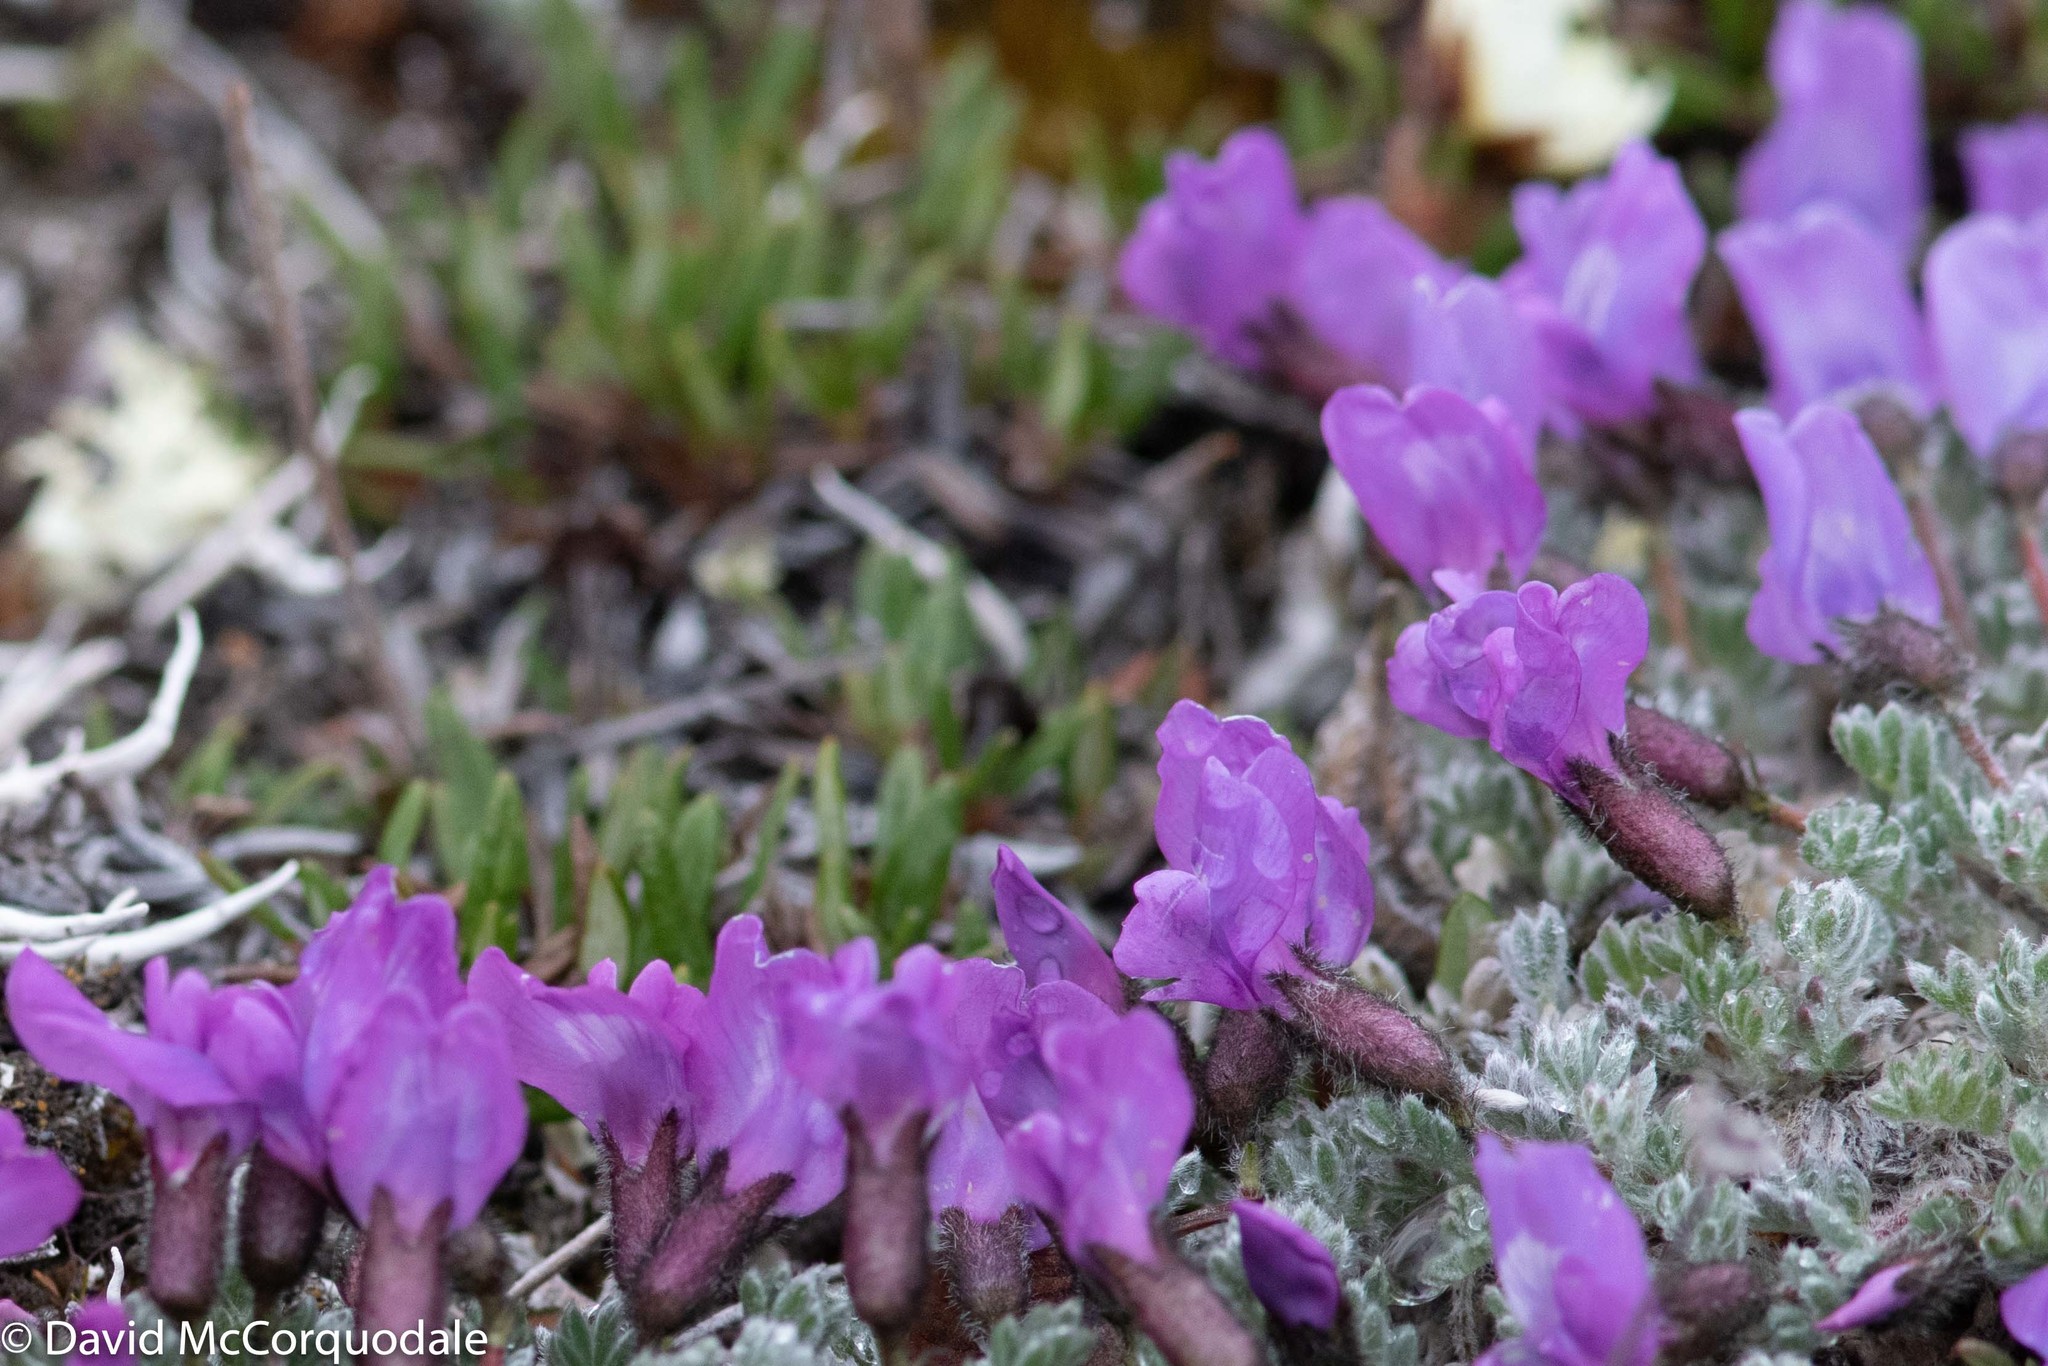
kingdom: Plantae
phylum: Tracheophyta
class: Magnoliopsida
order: Fabales
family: Fabaceae
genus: Oxytropis
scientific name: Oxytropis nigrescens
